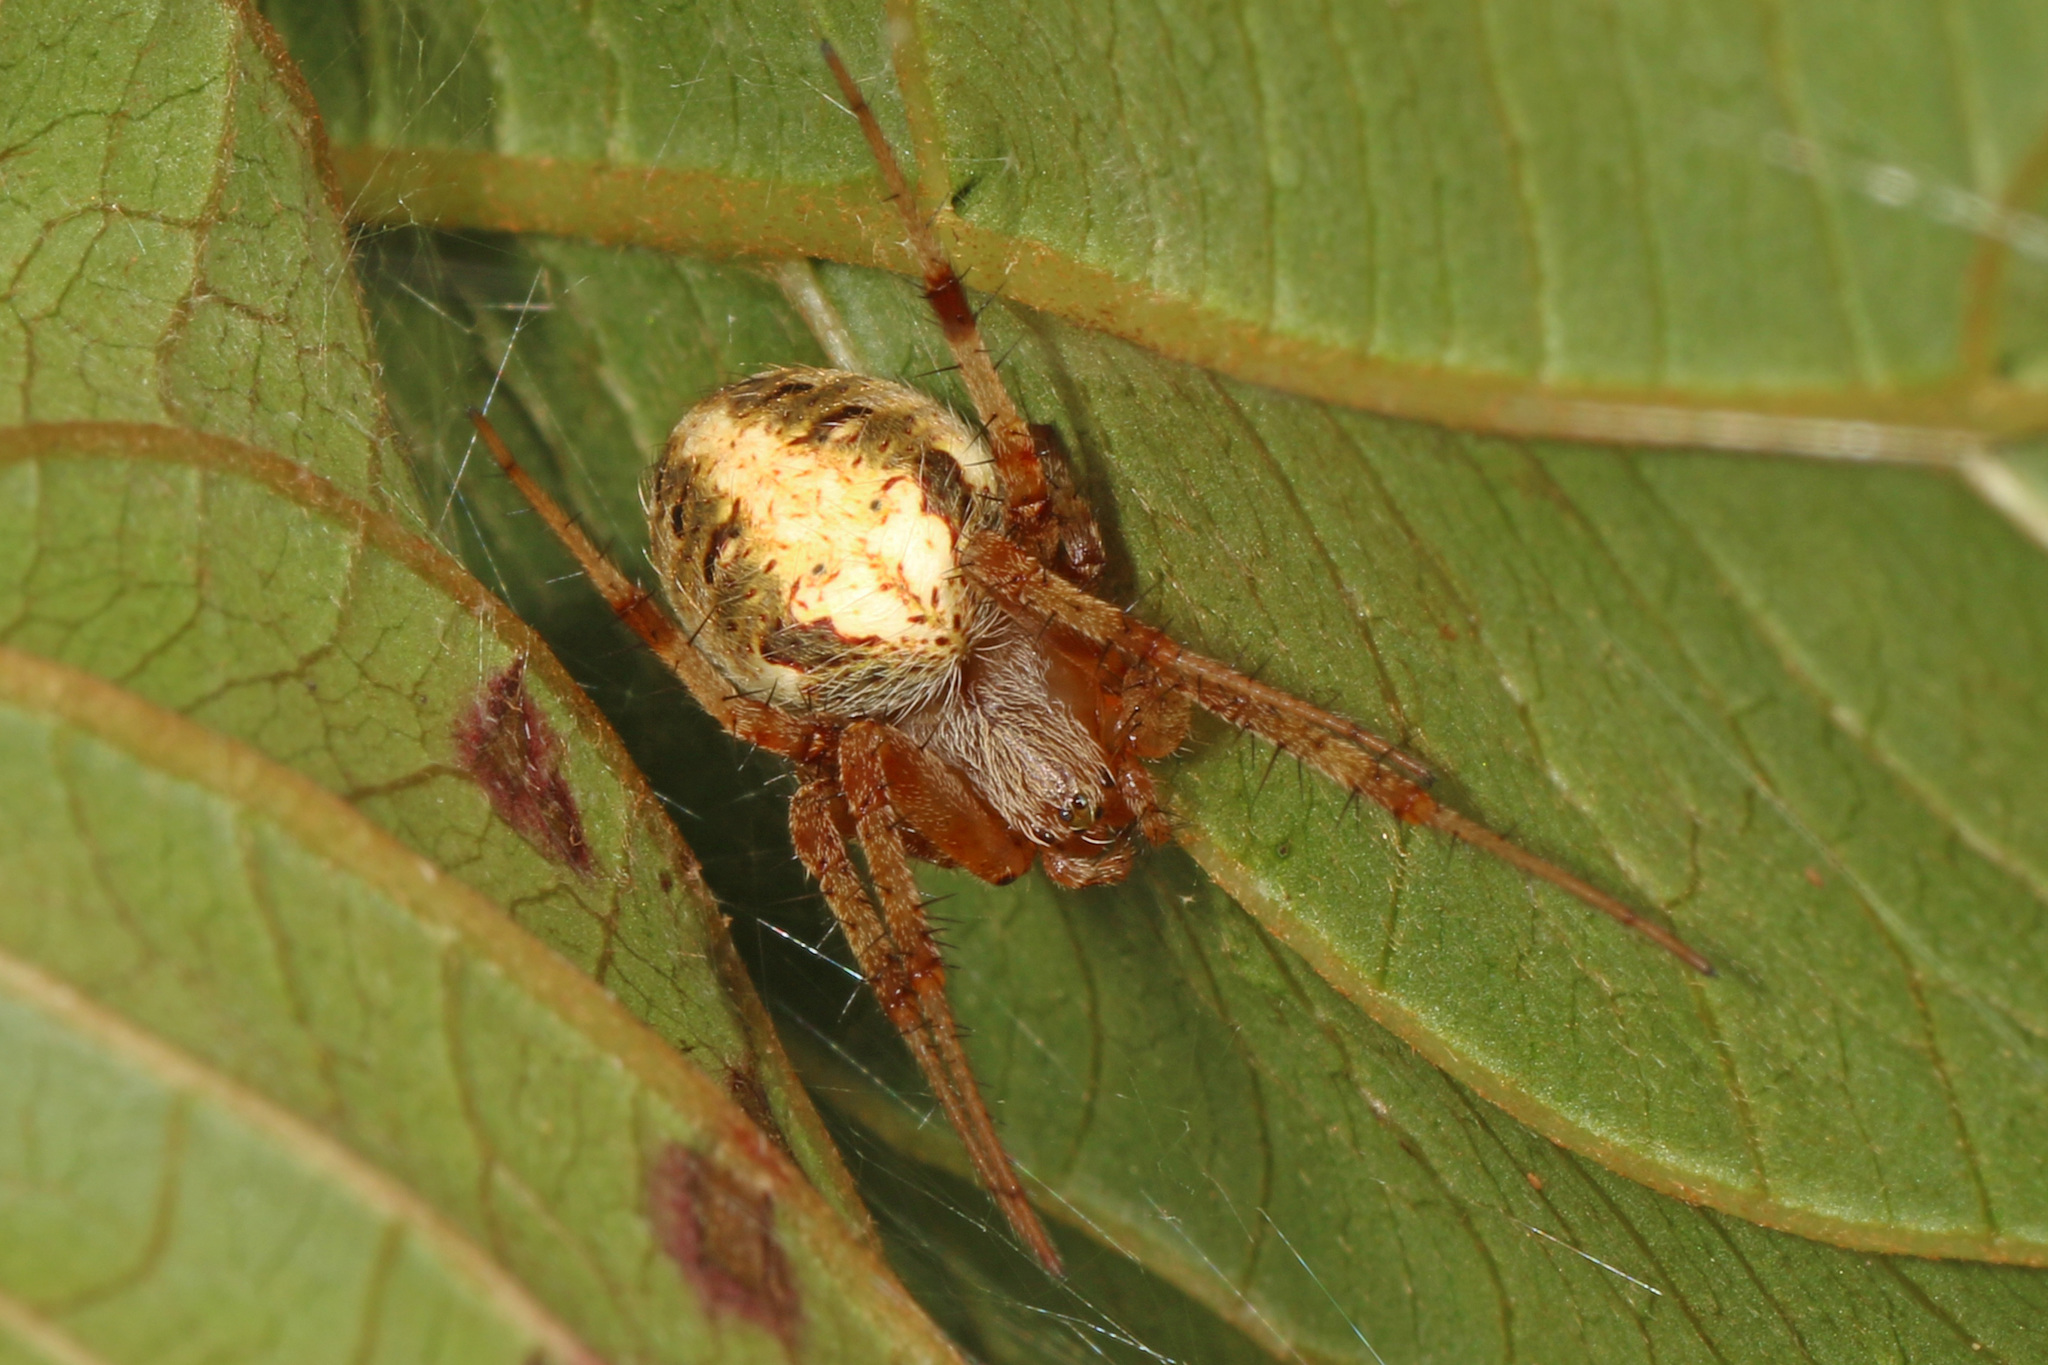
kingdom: Animalia
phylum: Arthropoda
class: Arachnida
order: Araneae
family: Araneidae
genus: Neoscona
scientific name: Neoscona arabesca
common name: Orb weavers
